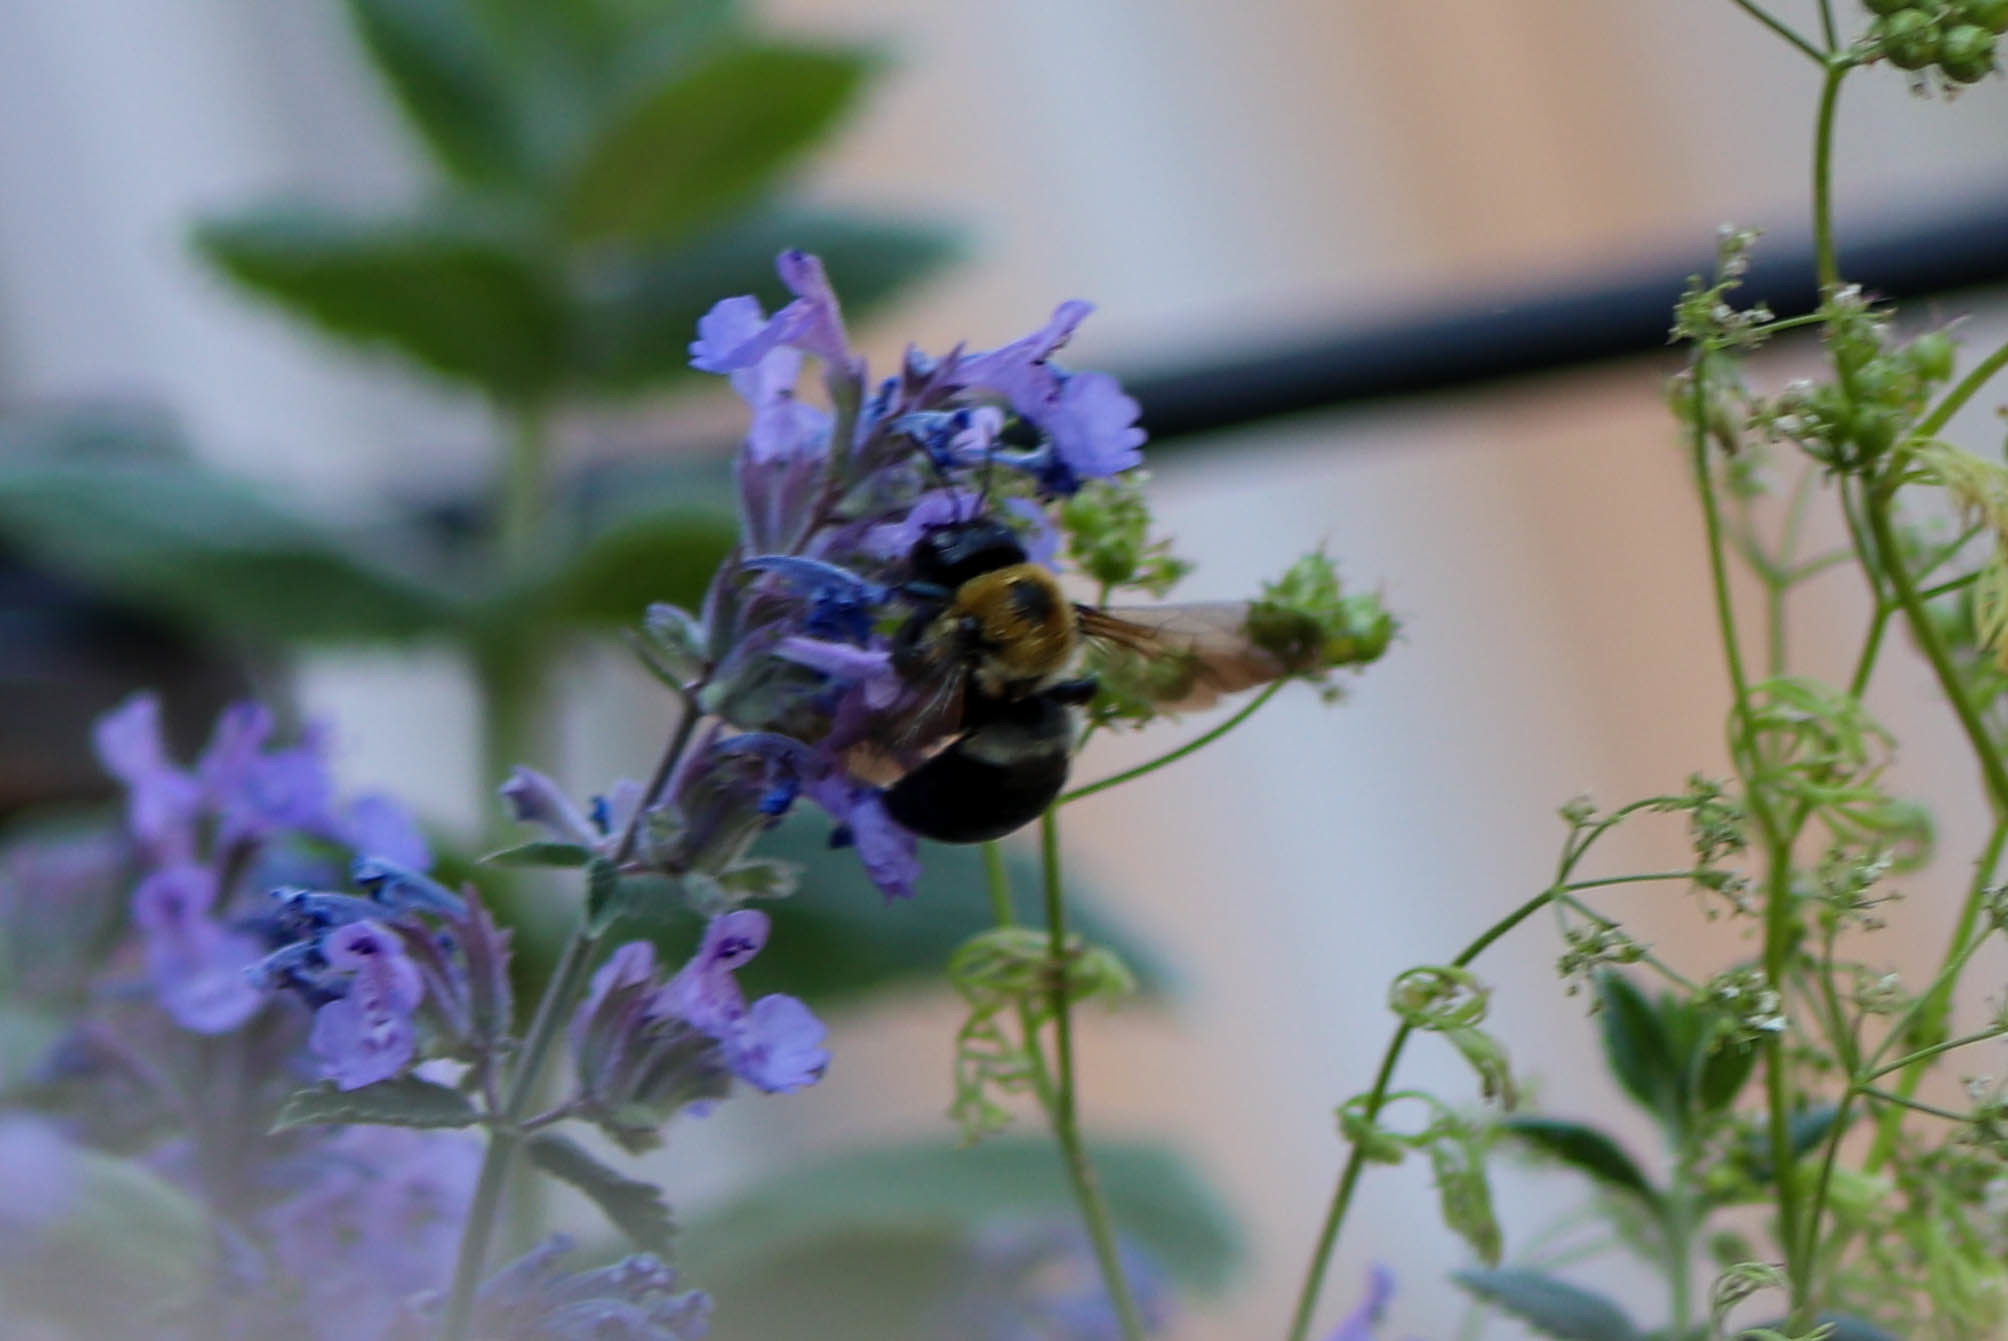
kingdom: Animalia
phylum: Arthropoda
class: Insecta
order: Hymenoptera
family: Apidae
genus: Xylocopa
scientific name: Xylocopa virginica
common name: Carpenter bee
